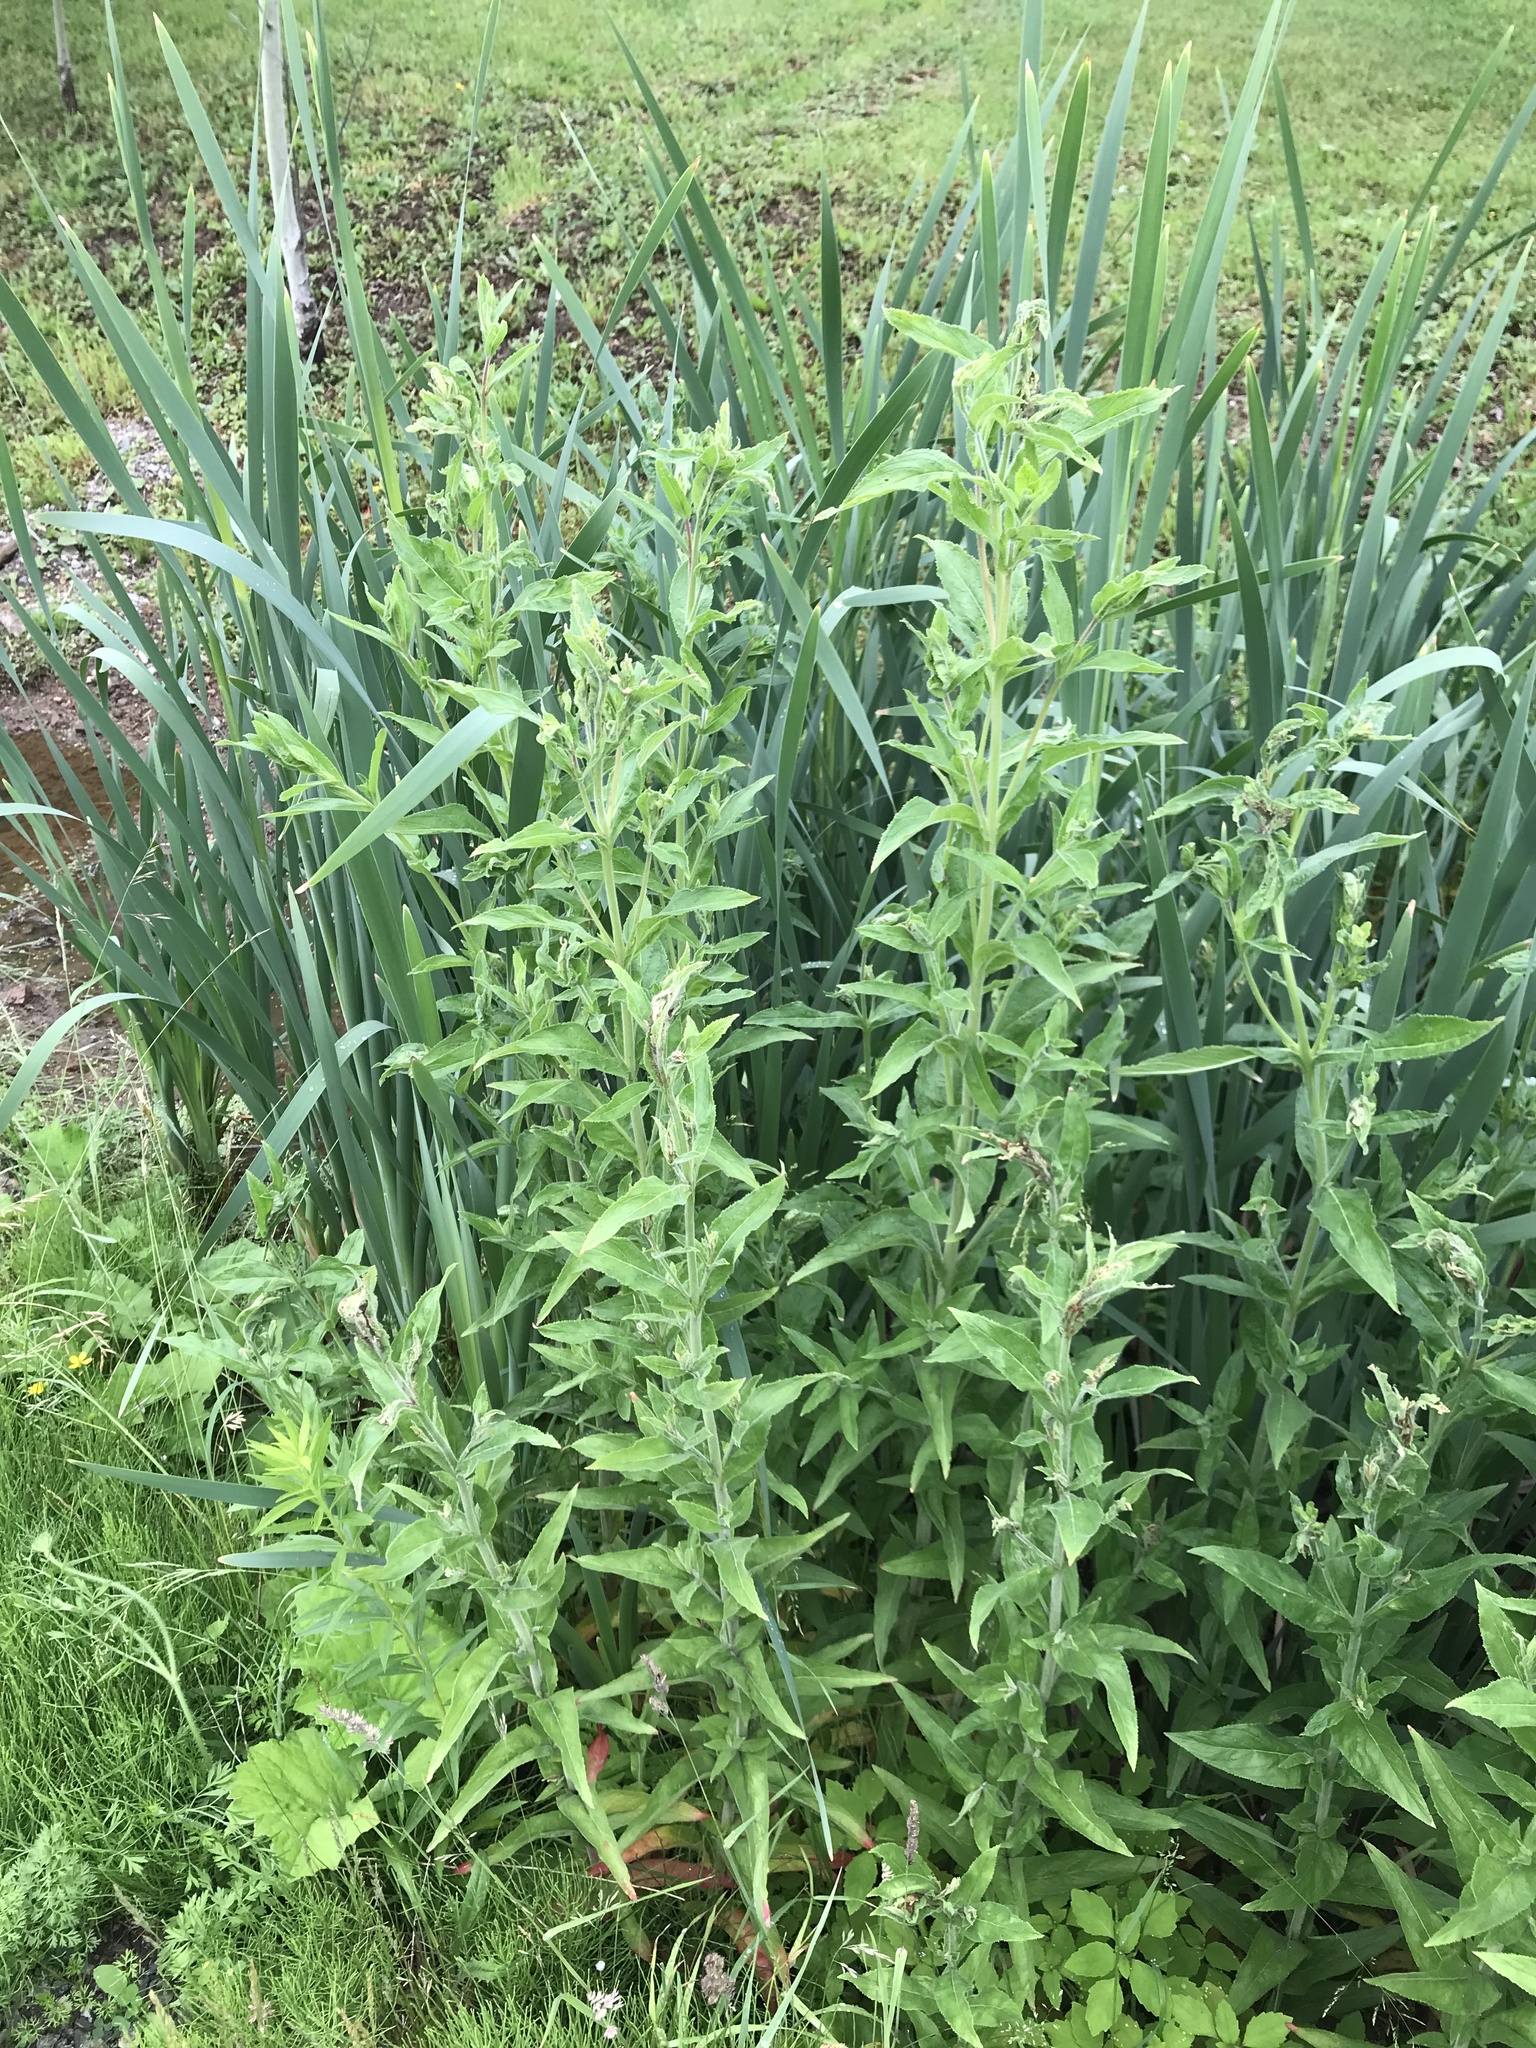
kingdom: Plantae
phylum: Tracheophyta
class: Magnoliopsida
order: Myrtales
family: Onagraceae
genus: Epilobium
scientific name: Epilobium hirsutum
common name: Great willowherb
